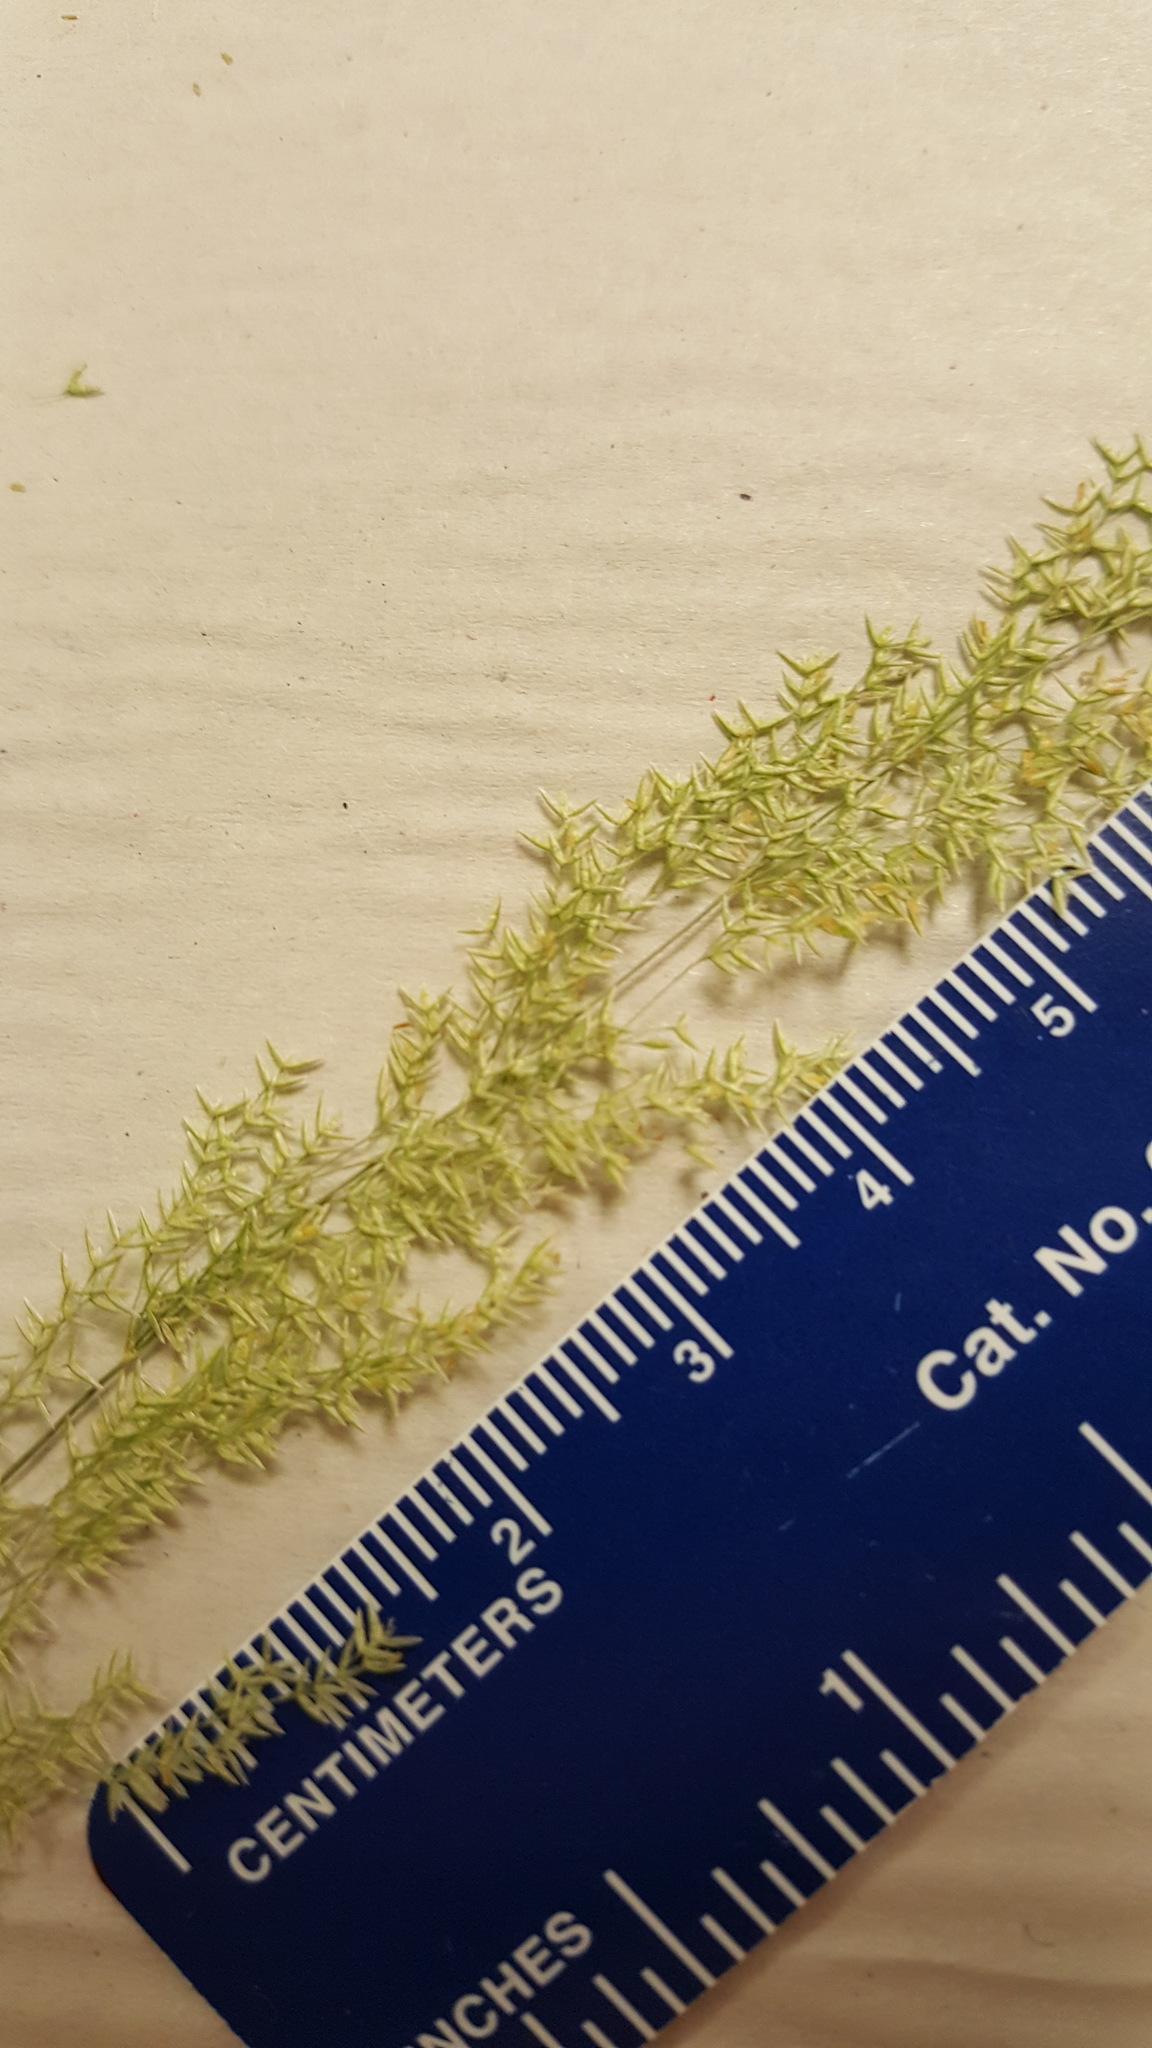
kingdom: Plantae
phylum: Tracheophyta
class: Liliopsida
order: Poales
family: Poaceae
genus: Agrostis
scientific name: Agrostis stolonifera
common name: Creeping bentgrass
